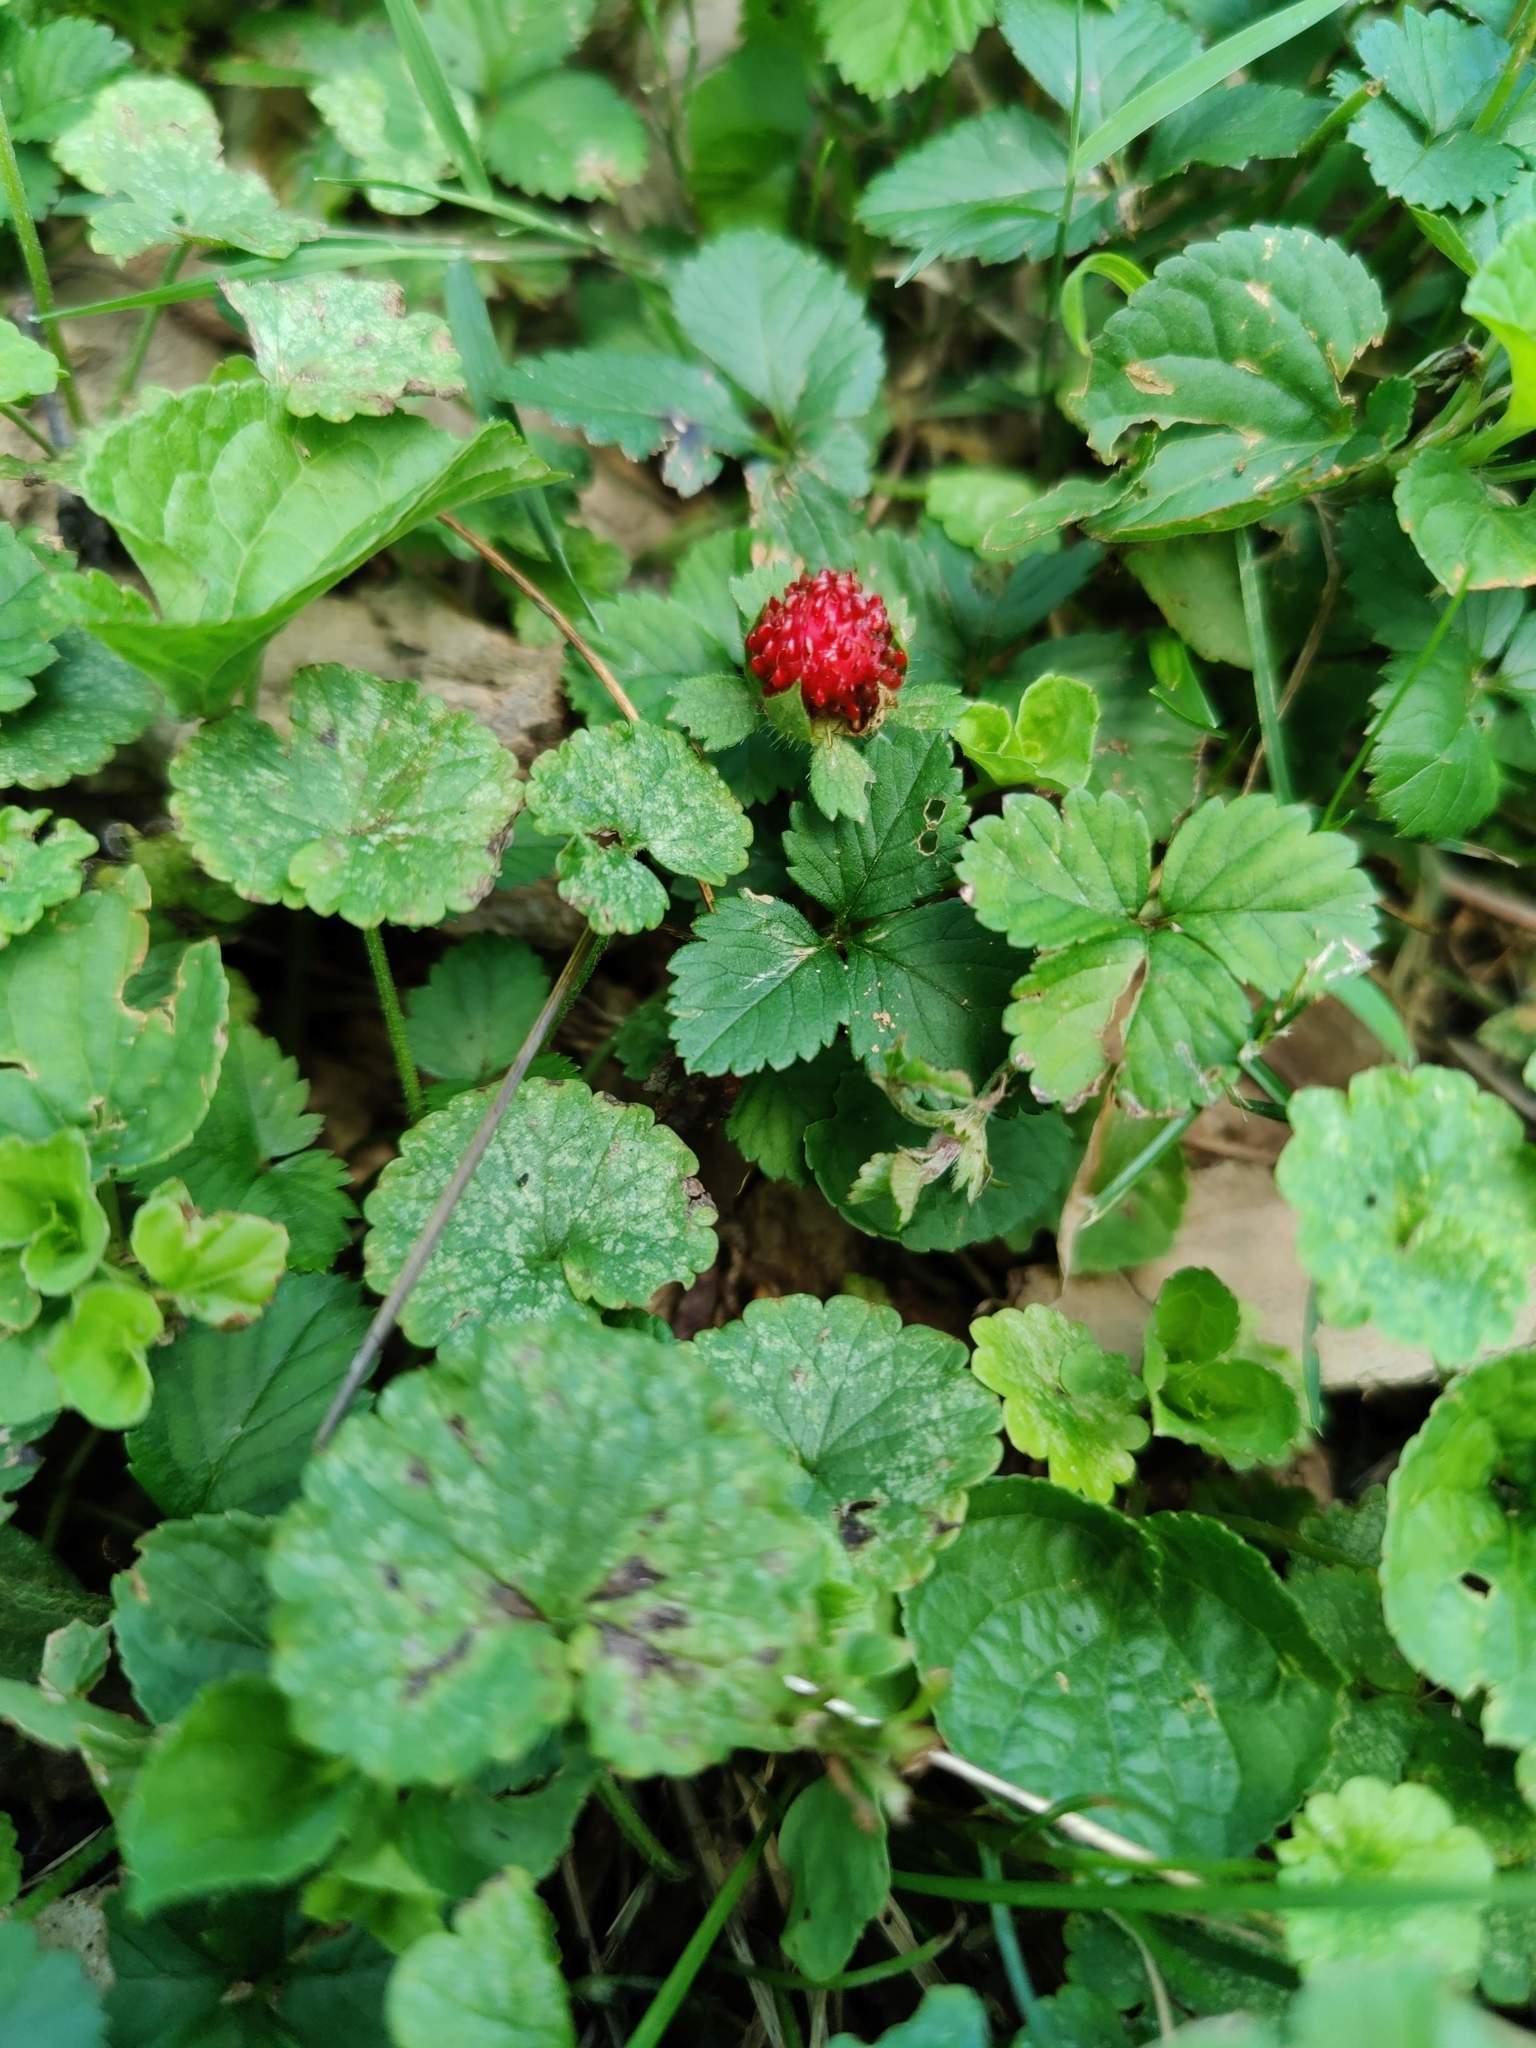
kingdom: Plantae
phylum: Tracheophyta
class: Magnoliopsida
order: Rosales
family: Rosaceae
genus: Potentilla
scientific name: Potentilla indica
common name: Yellow-flowered strawberry
